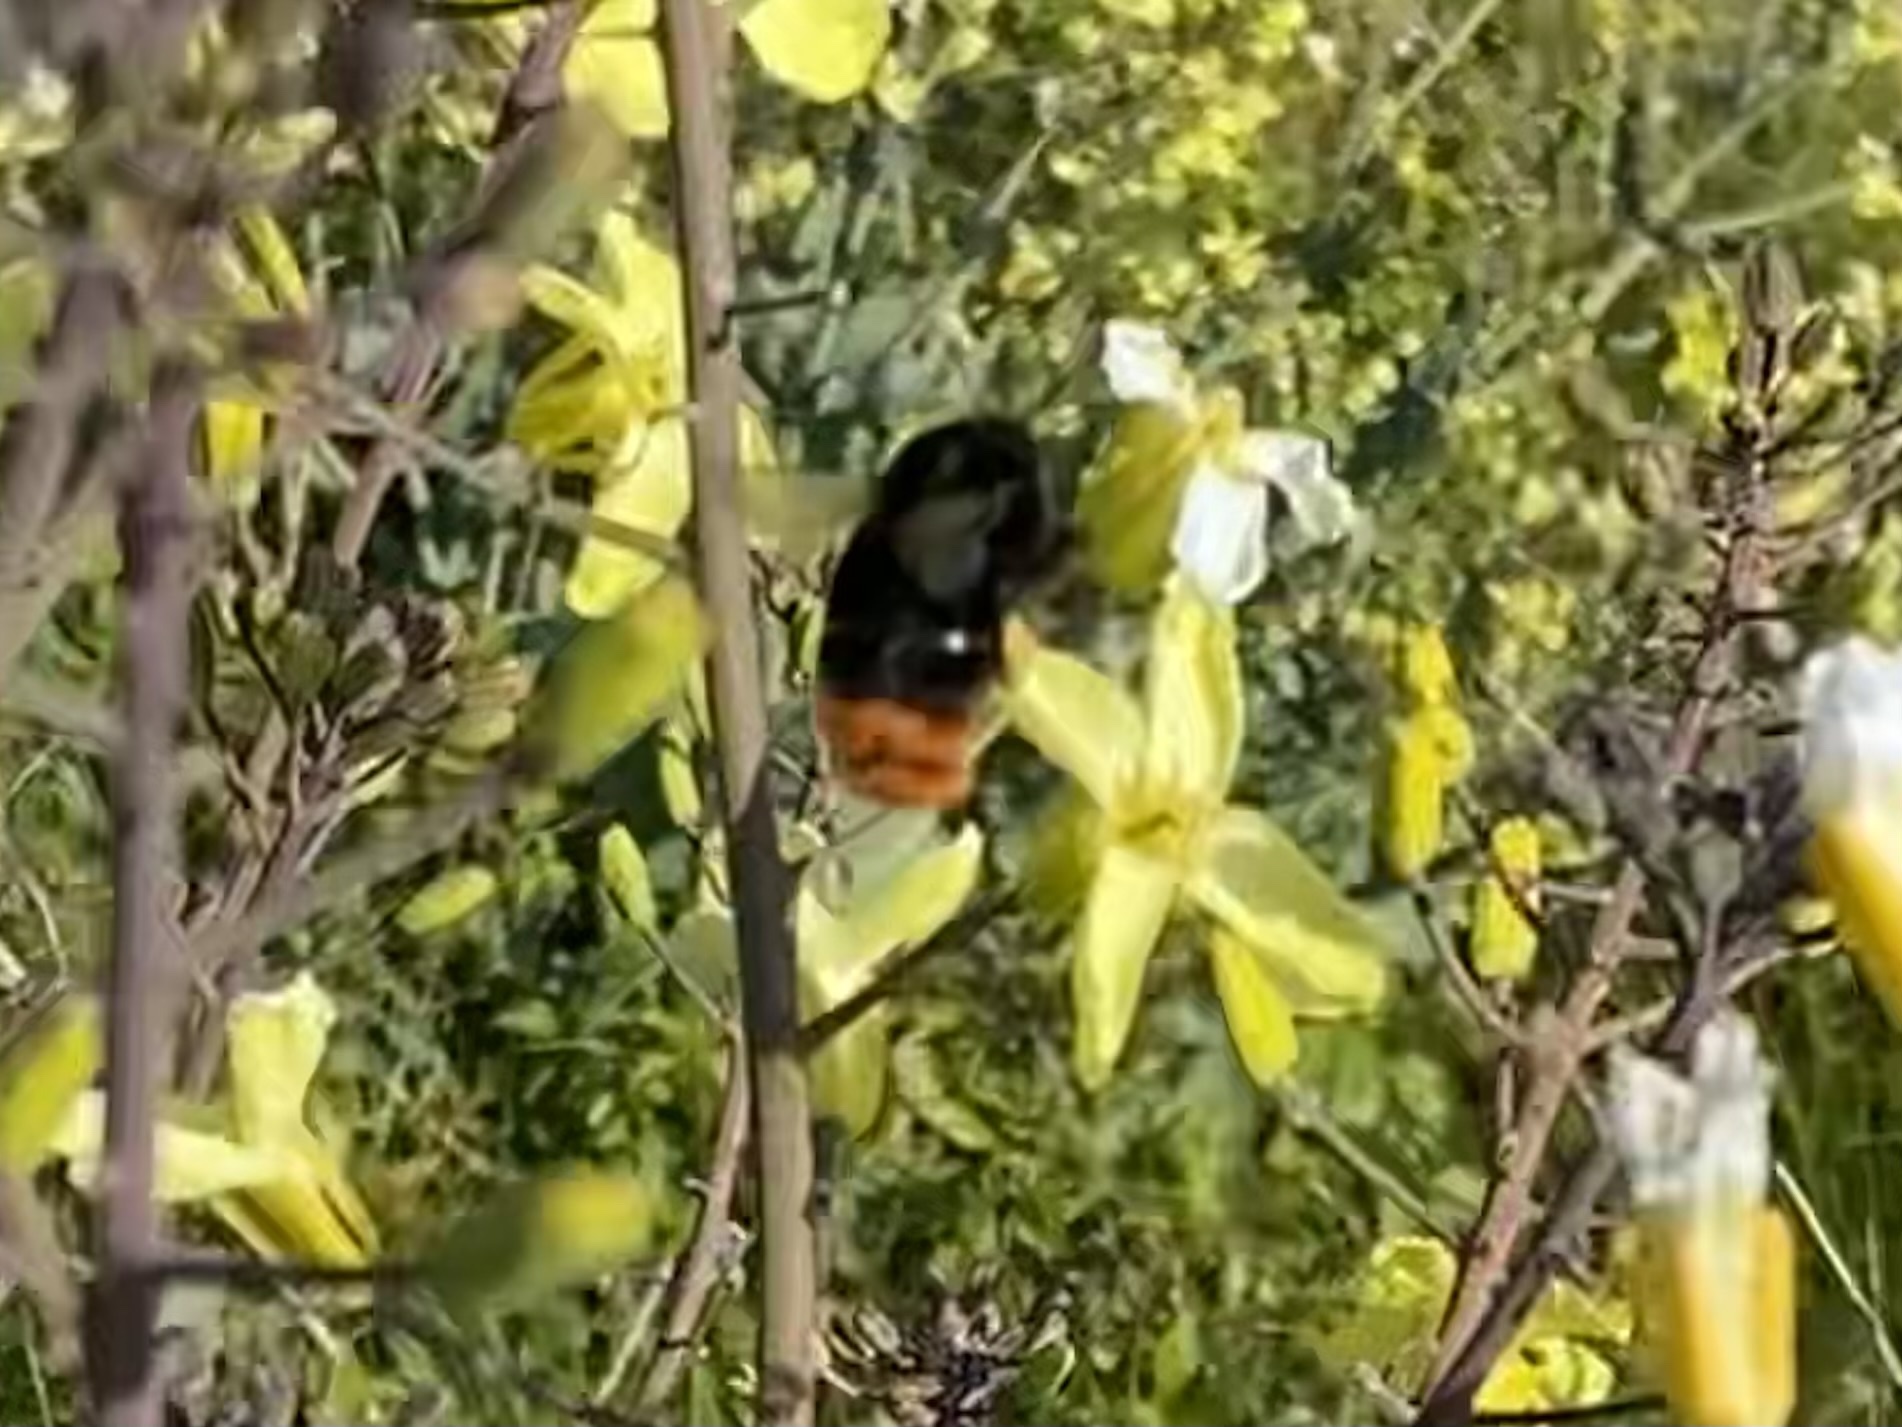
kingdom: Animalia
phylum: Arthropoda
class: Insecta
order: Hymenoptera
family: Apidae
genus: Bombus
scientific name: Bombus lapidarius
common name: Large red-tailed humble-bee
